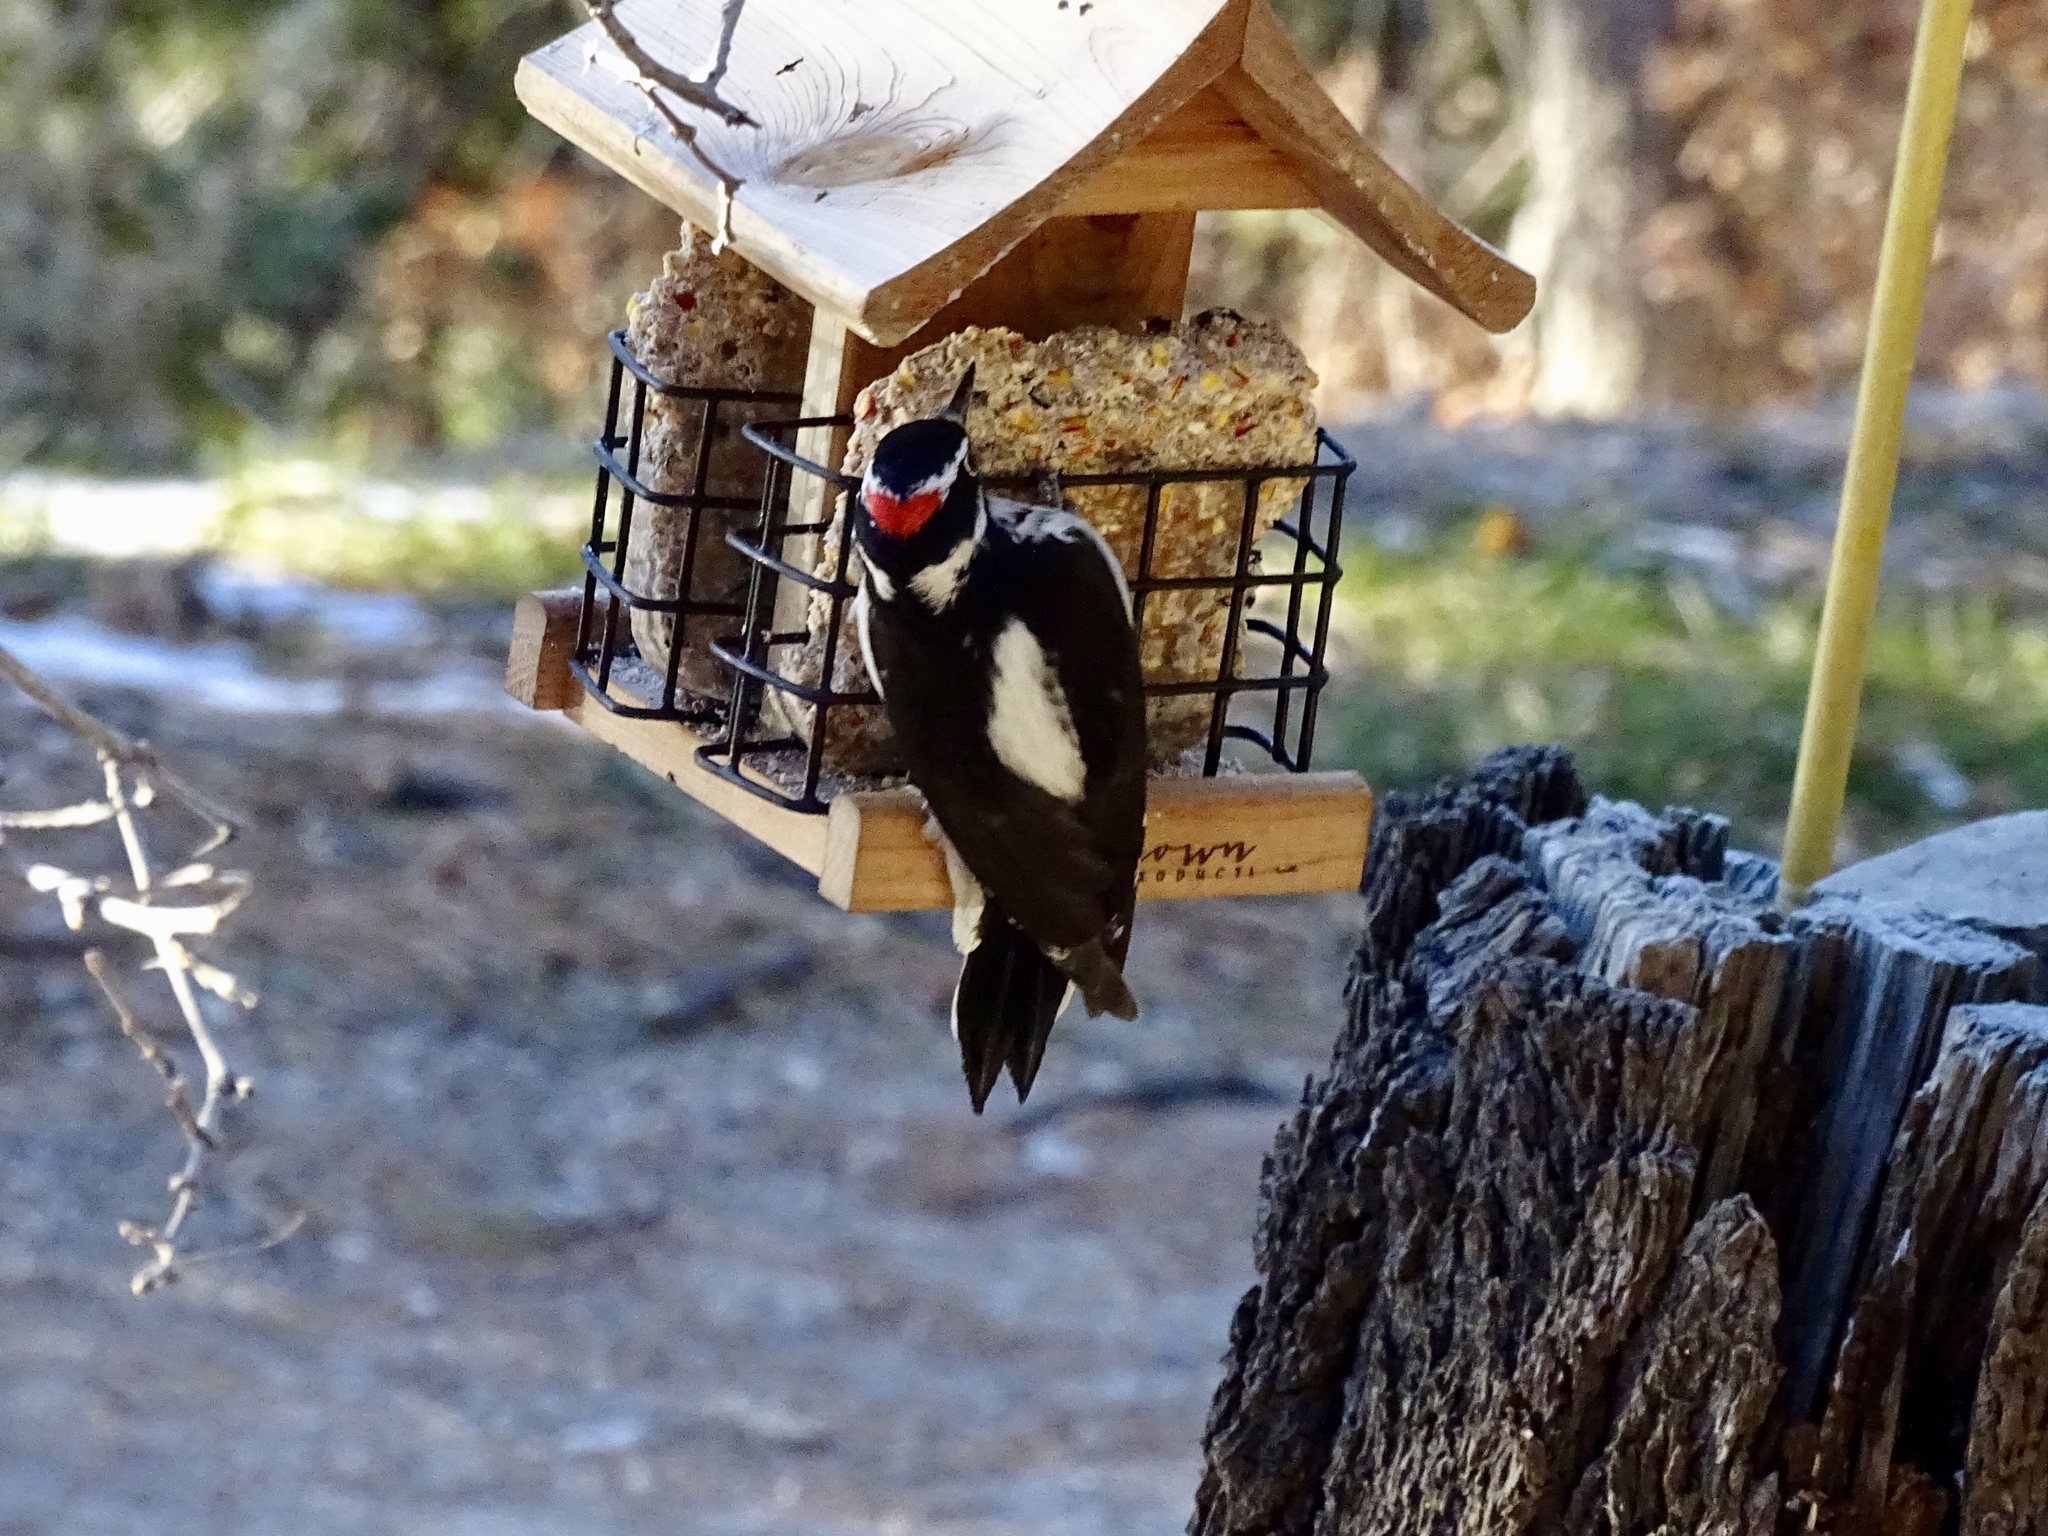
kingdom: Animalia
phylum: Chordata
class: Aves
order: Piciformes
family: Picidae
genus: Leuconotopicus
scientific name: Leuconotopicus villosus
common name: Hairy woodpecker
